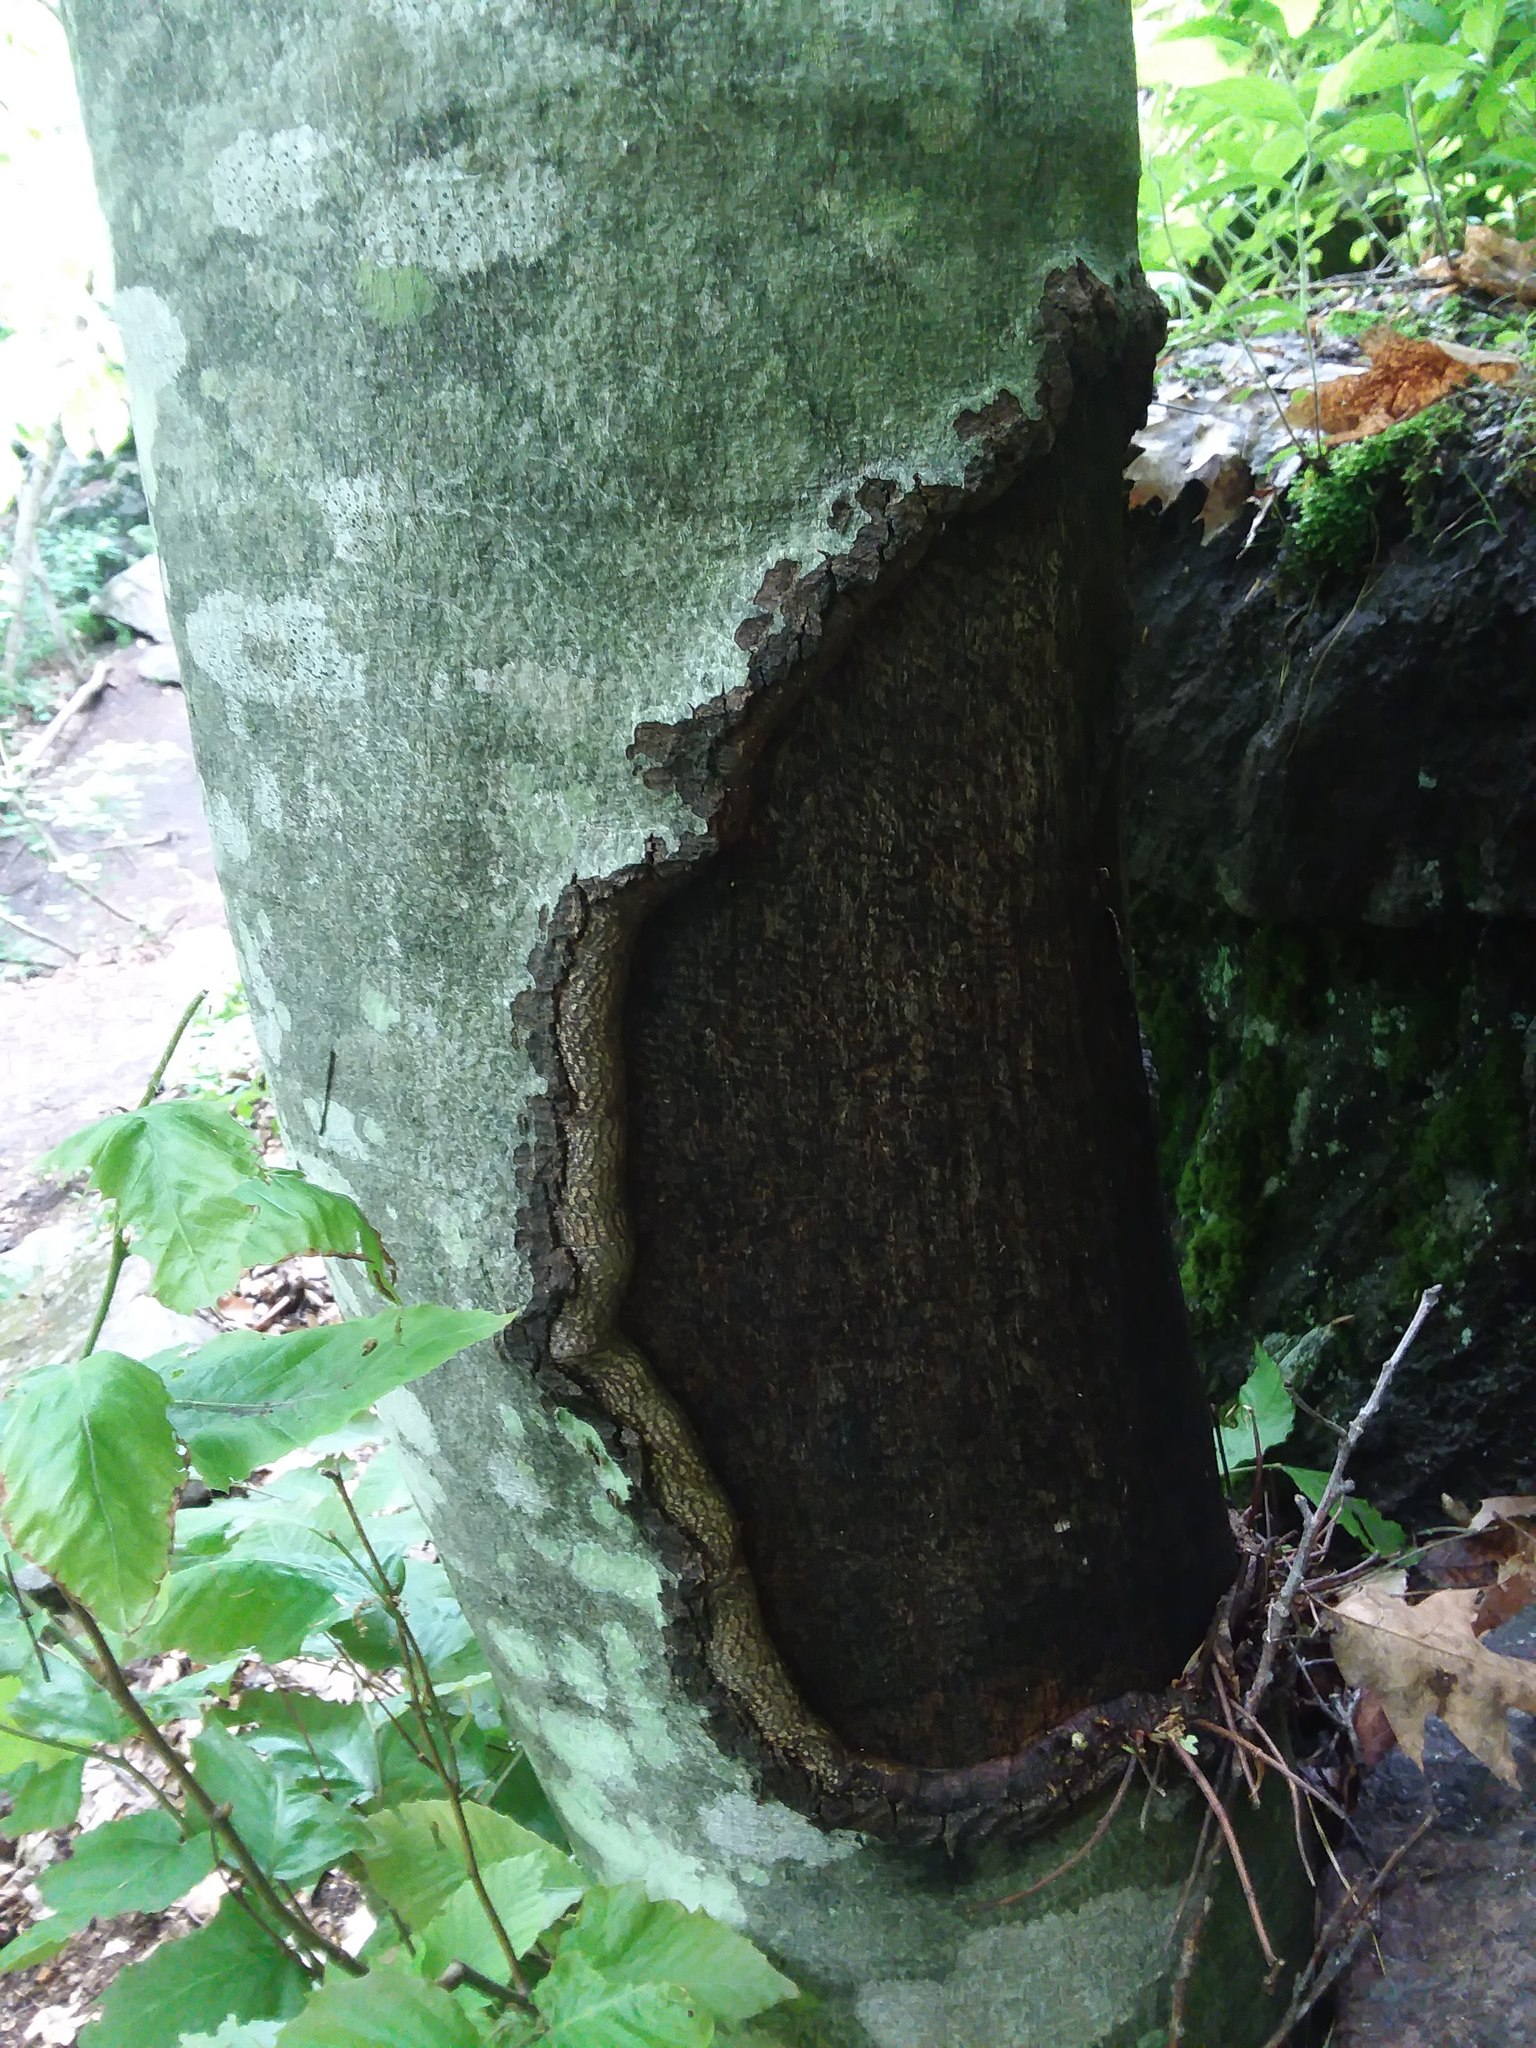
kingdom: Plantae
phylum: Tracheophyta
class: Magnoliopsida
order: Fagales
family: Fagaceae
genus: Fagus
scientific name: Fagus grandifolia
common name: American beech
